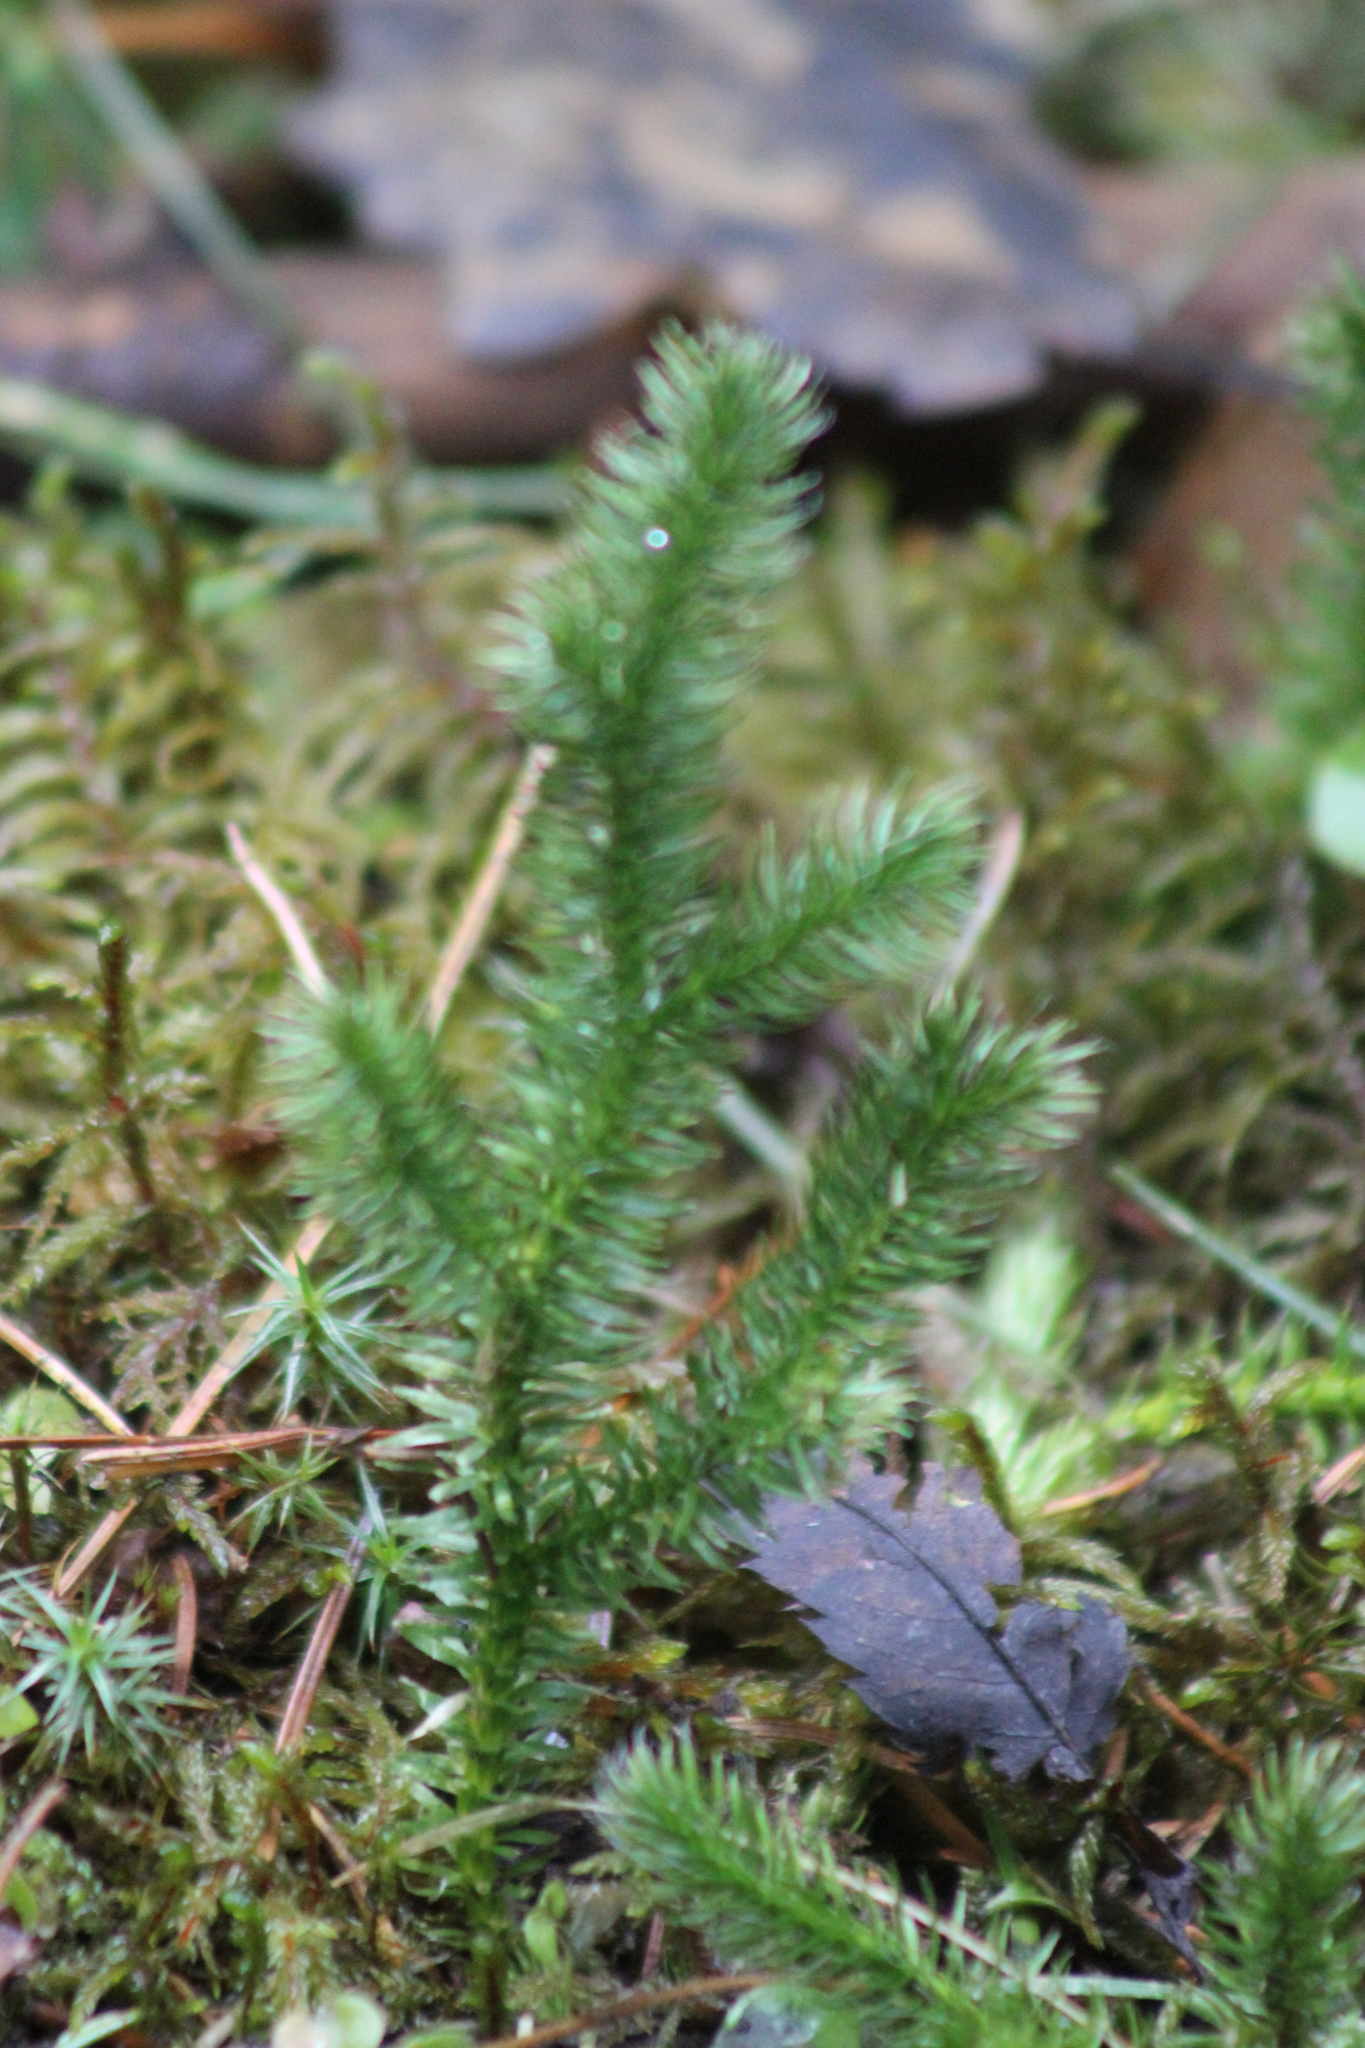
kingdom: Plantae
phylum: Tracheophyta
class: Lycopodiopsida
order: Lycopodiales
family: Lycopodiaceae
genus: Lycopodium
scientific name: Lycopodium clavatum
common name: Stag's-horn clubmoss
